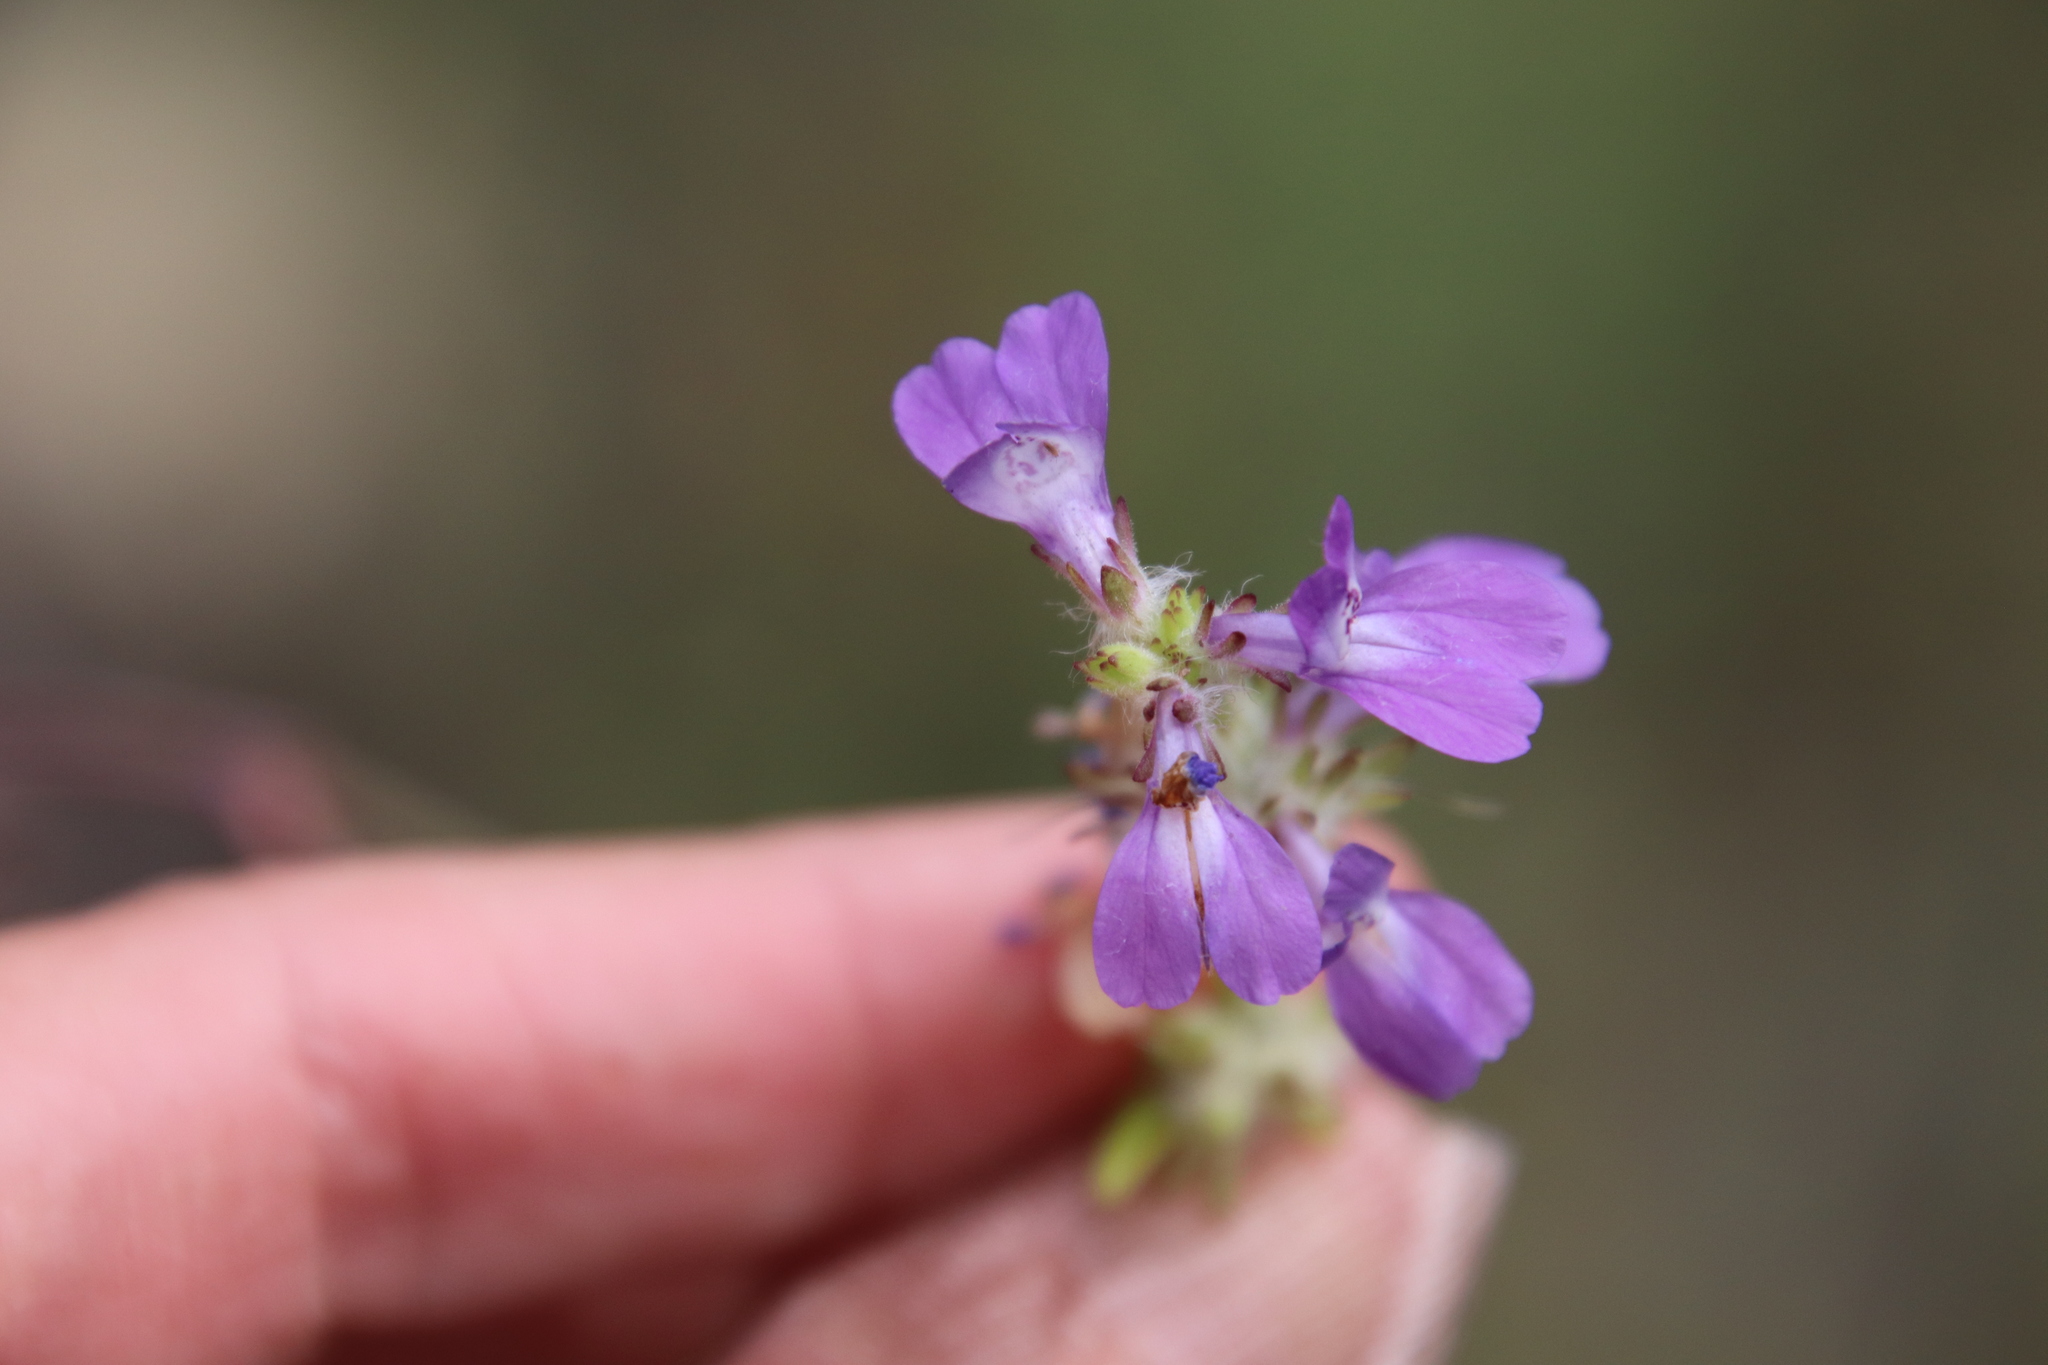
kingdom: Plantae
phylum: Tracheophyta
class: Magnoliopsida
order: Lamiales
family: Plantaginaceae
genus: Collinsia
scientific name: Collinsia heterophylla
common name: Chinese-houses
